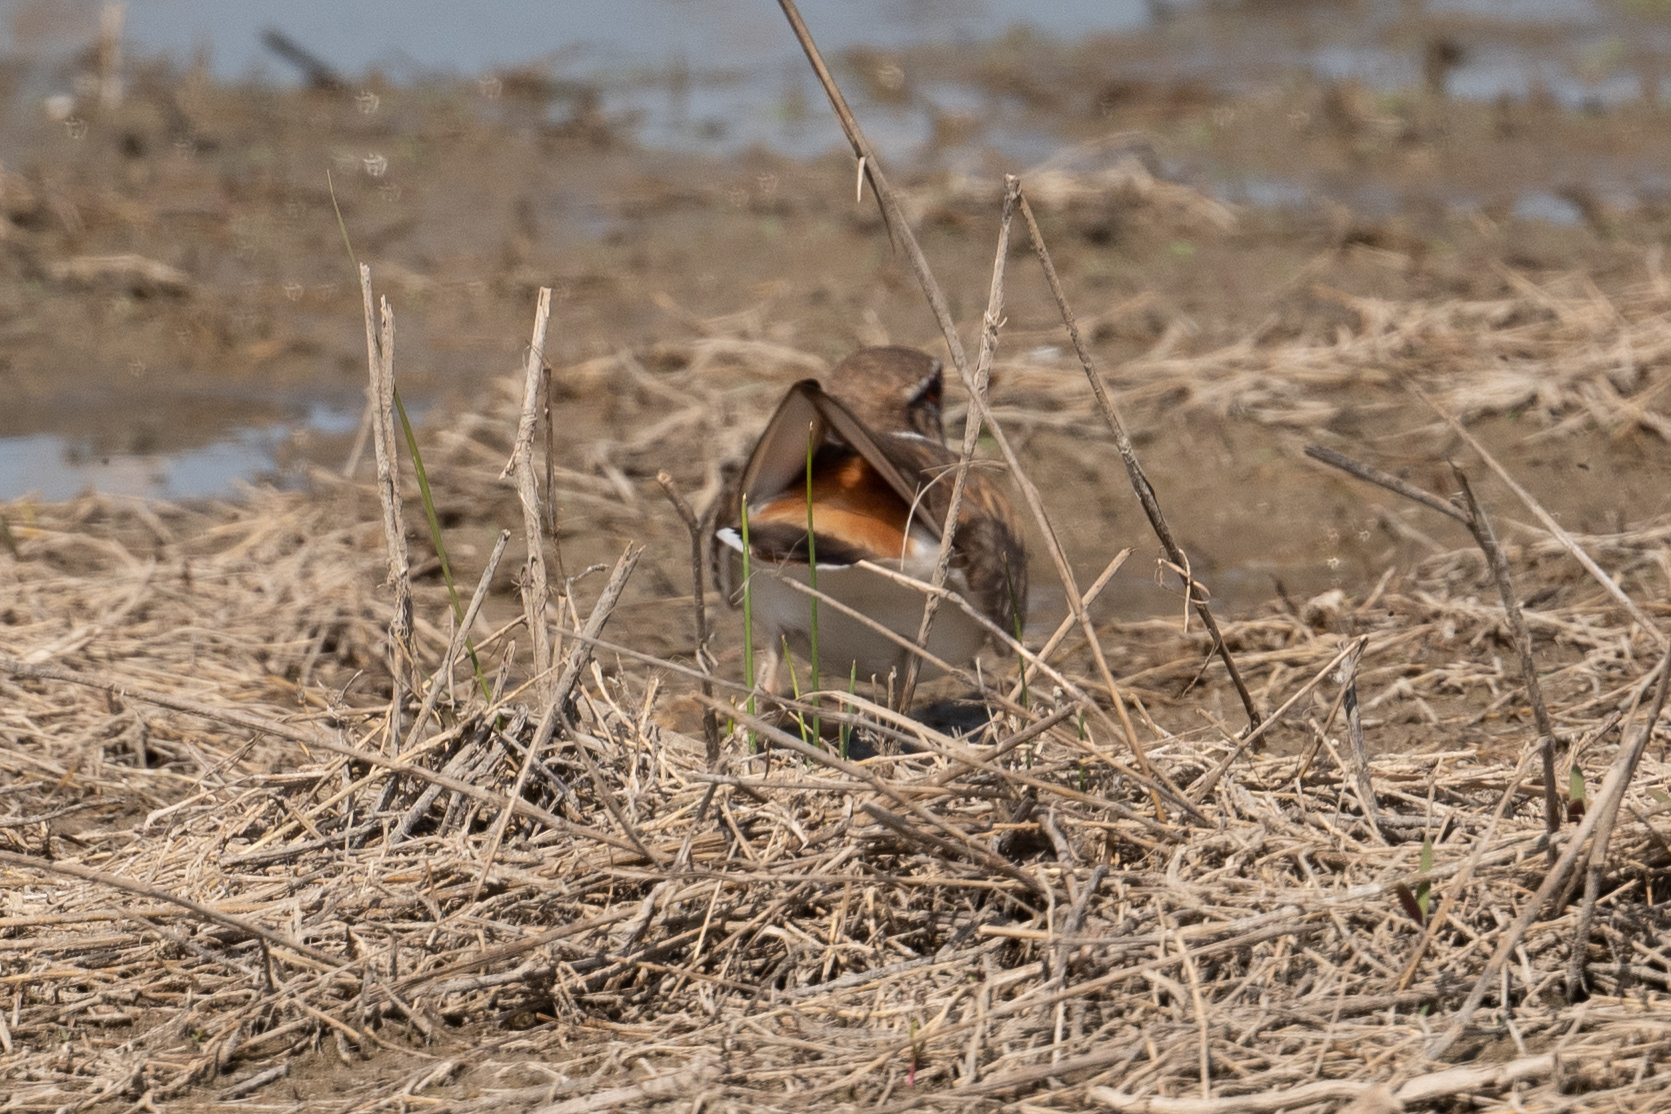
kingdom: Animalia
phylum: Chordata
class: Aves
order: Charadriiformes
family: Charadriidae
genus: Charadrius
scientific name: Charadrius vociferus
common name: Killdeer
